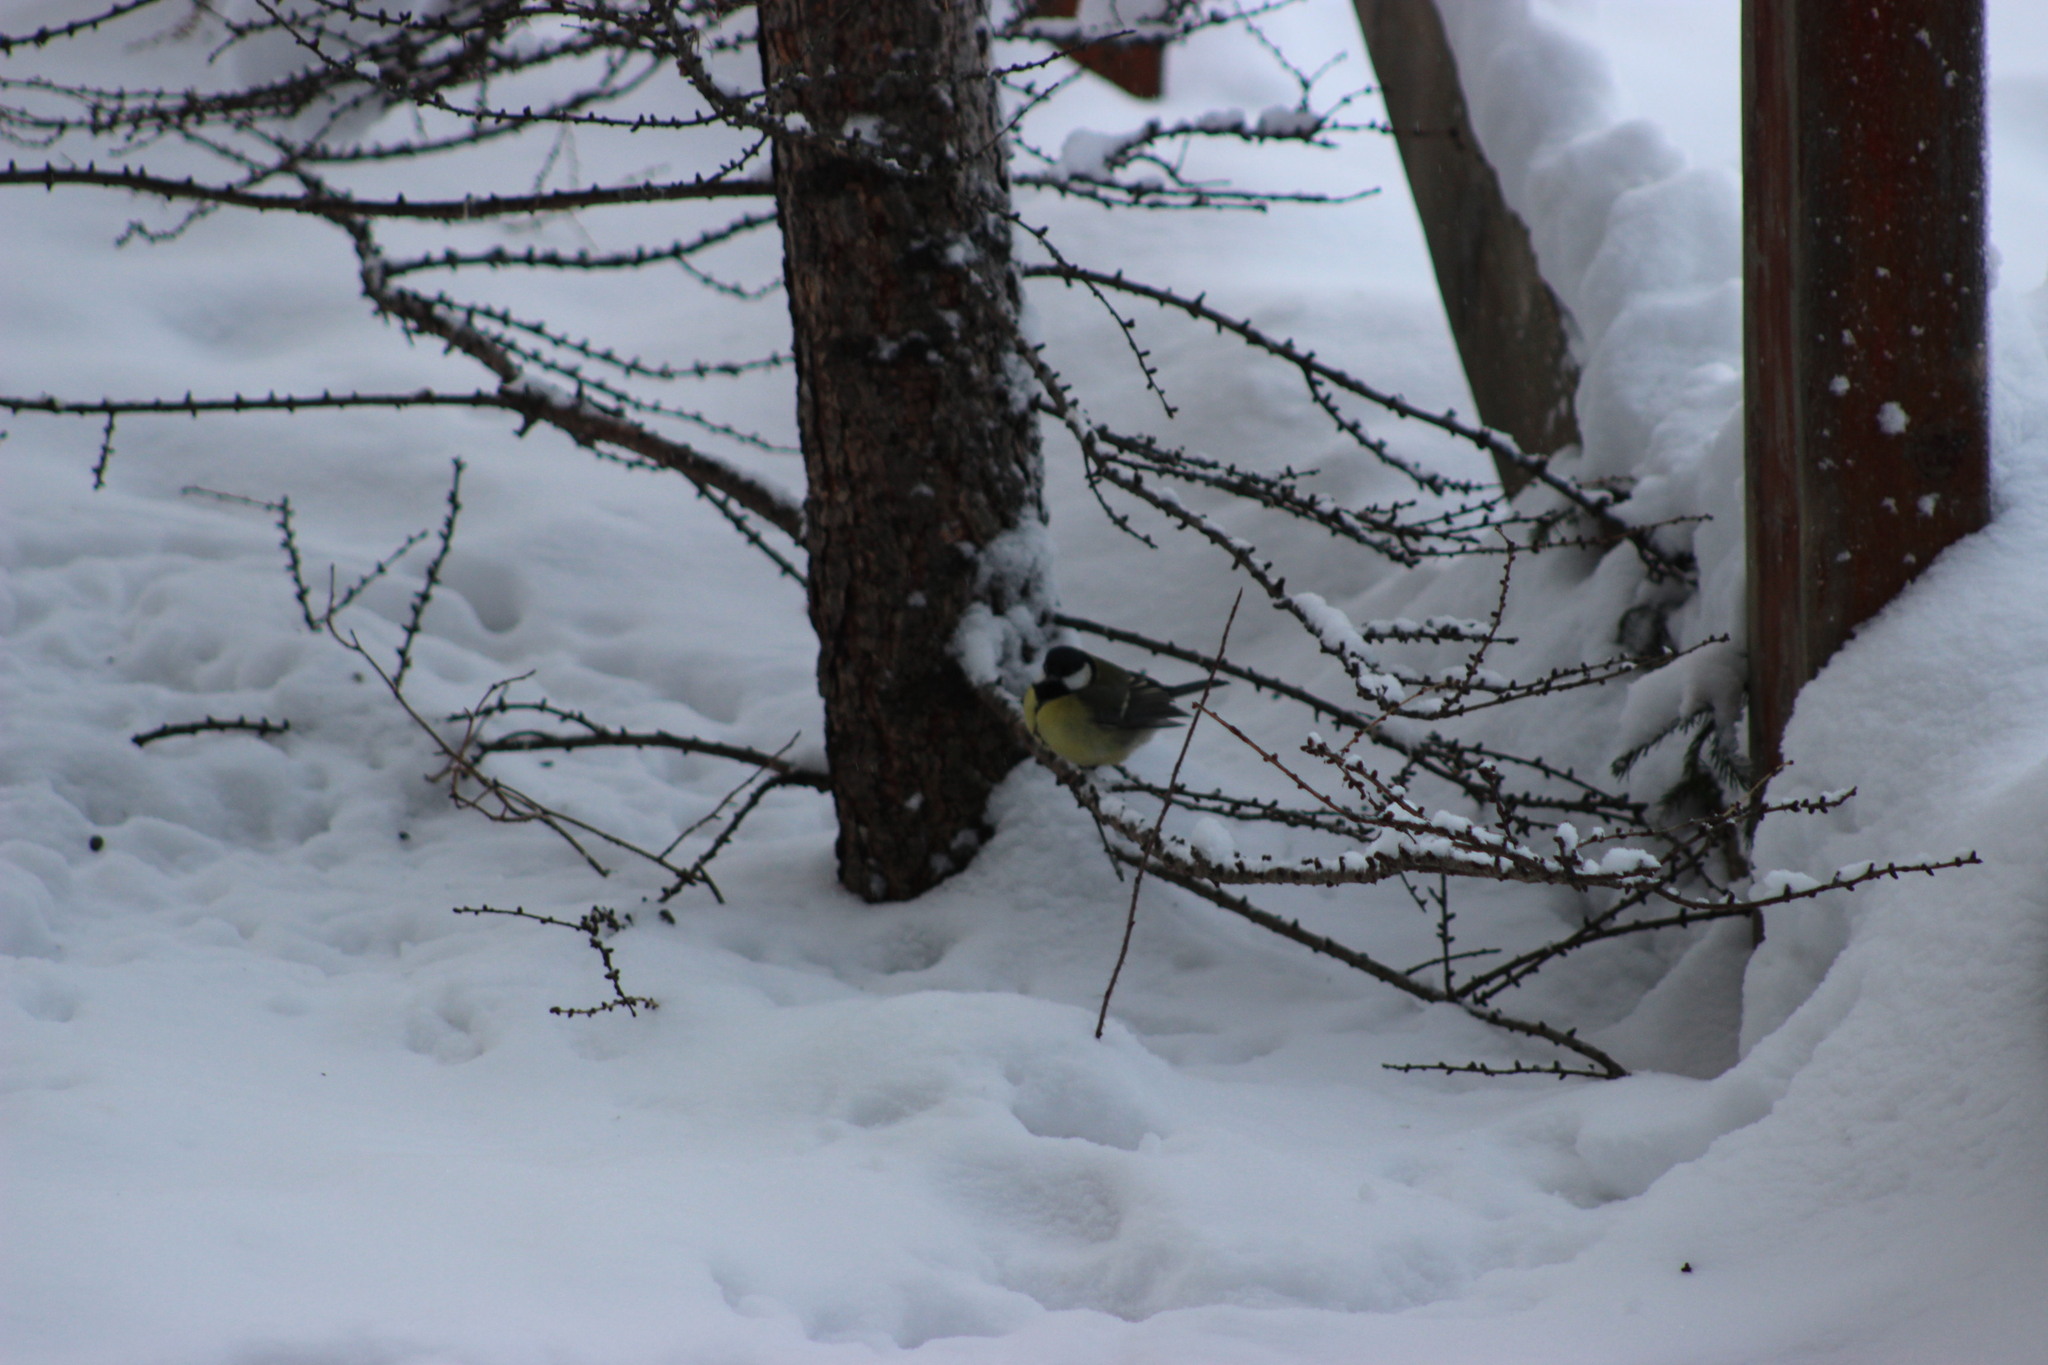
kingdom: Animalia
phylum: Chordata
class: Aves
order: Passeriformes
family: Paridae
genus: Parus
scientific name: Parus major
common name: Great tit
